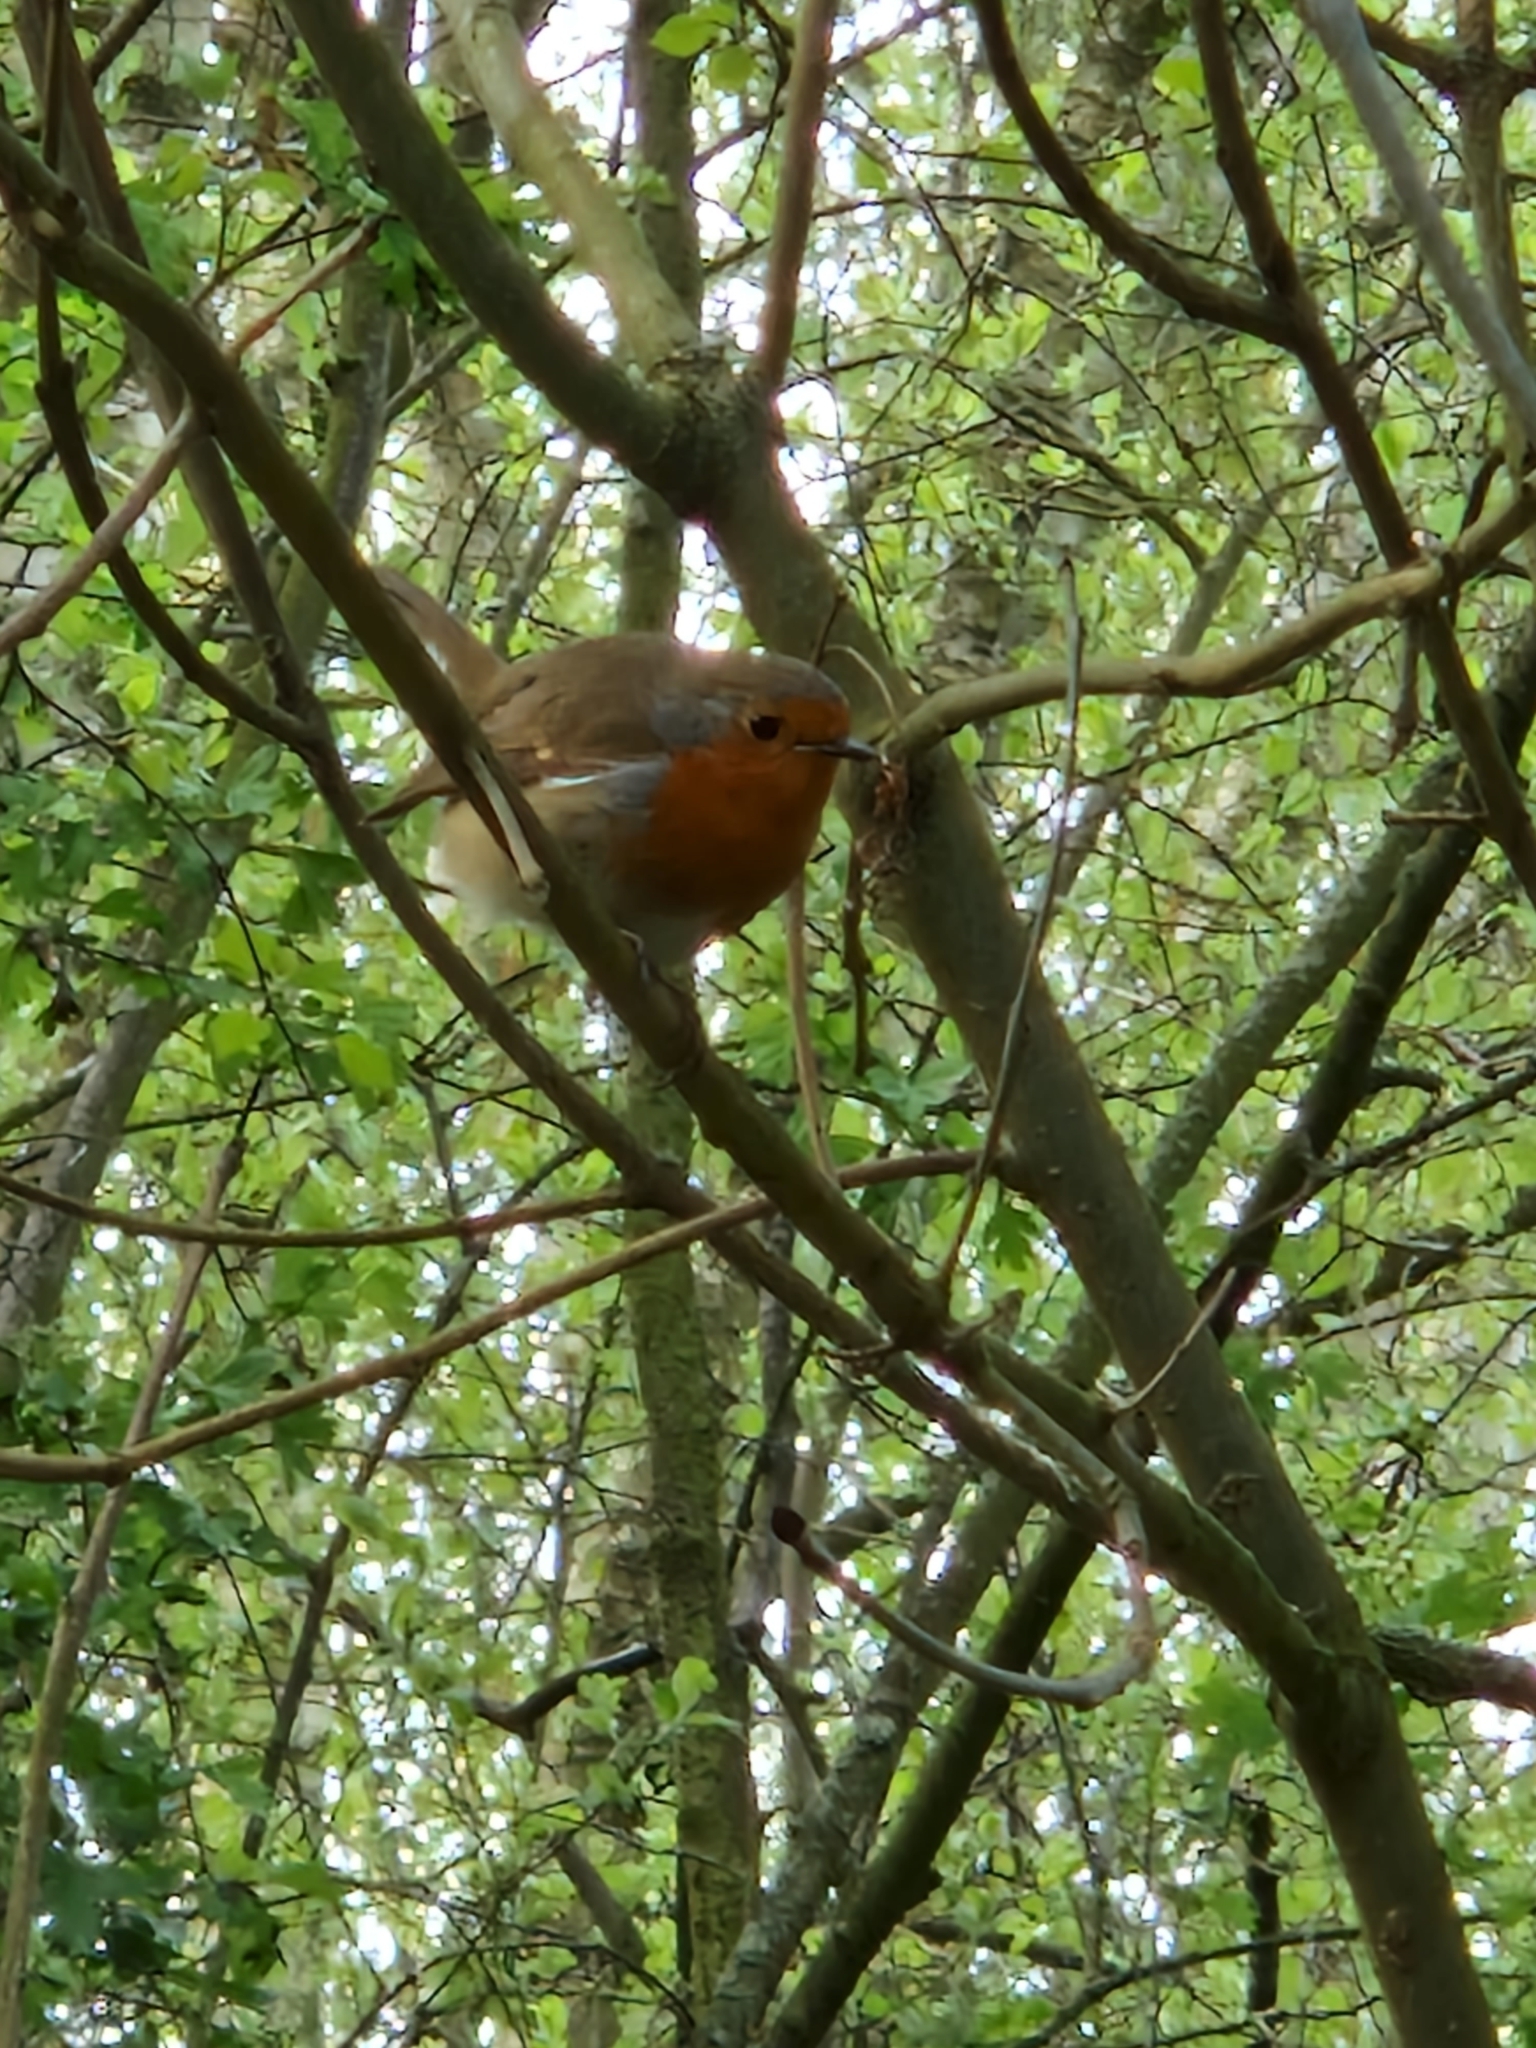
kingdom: Animalia
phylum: Chordata
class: Aves
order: Passeriformes
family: Muscicapidae
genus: Erithacus
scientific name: Erithacus rubecula
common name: European robin
